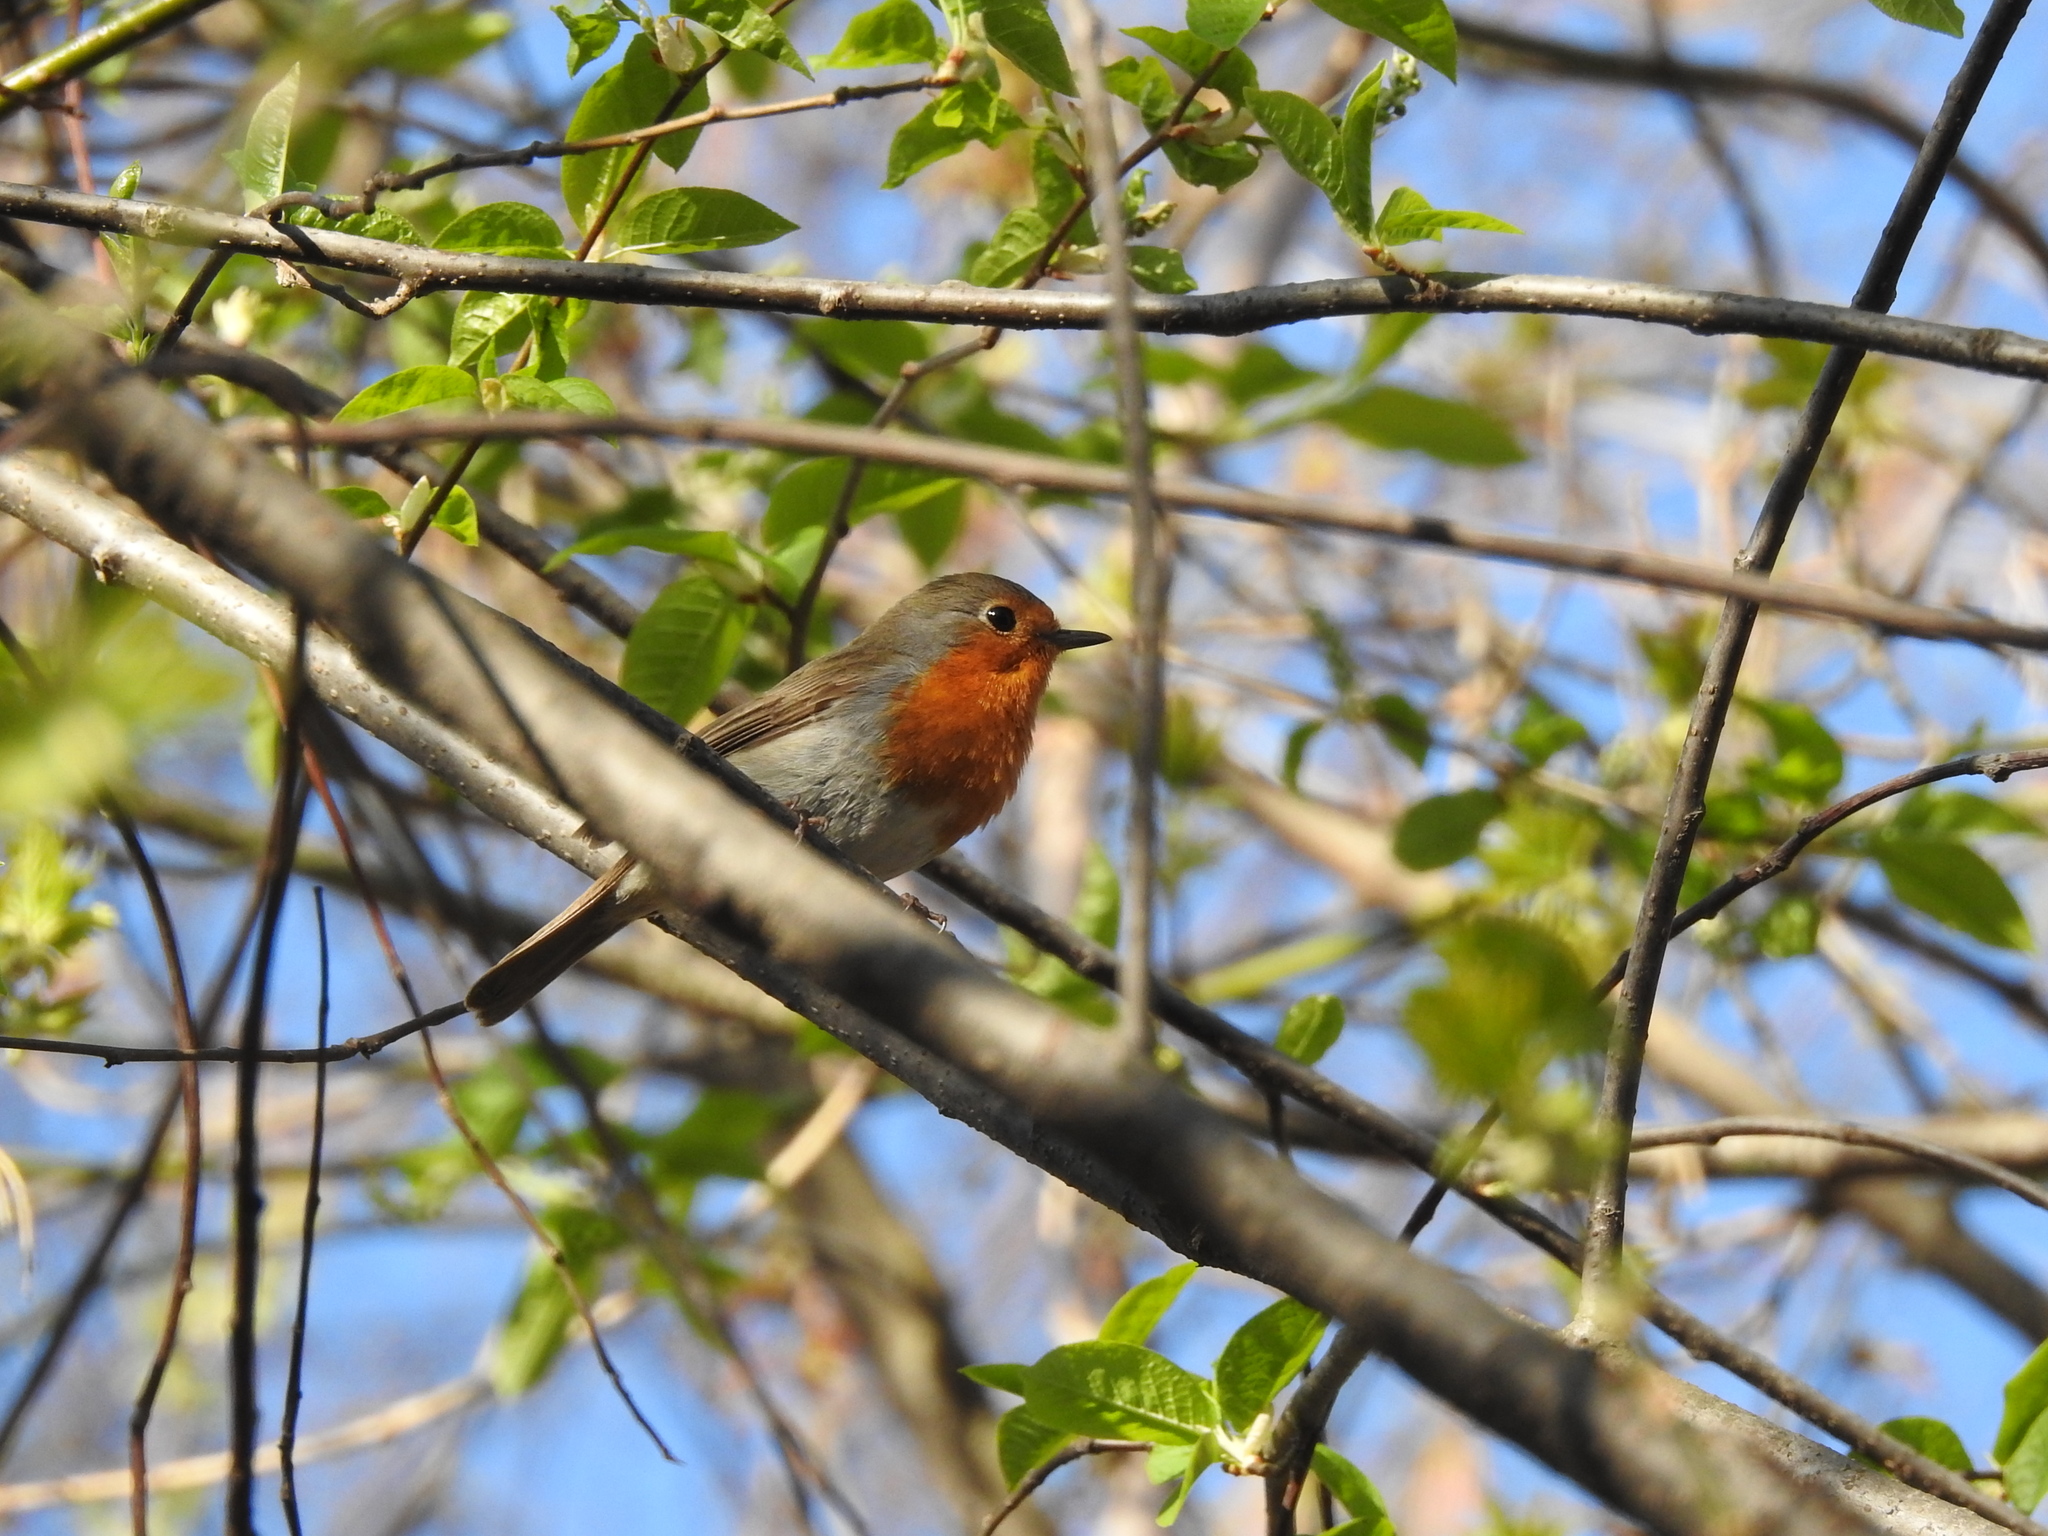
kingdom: Animalia
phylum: Chordata
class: Aves
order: Passeriformes
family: Muscicapidae
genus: Erithacus
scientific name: Erithacus rubecula
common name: European robin
